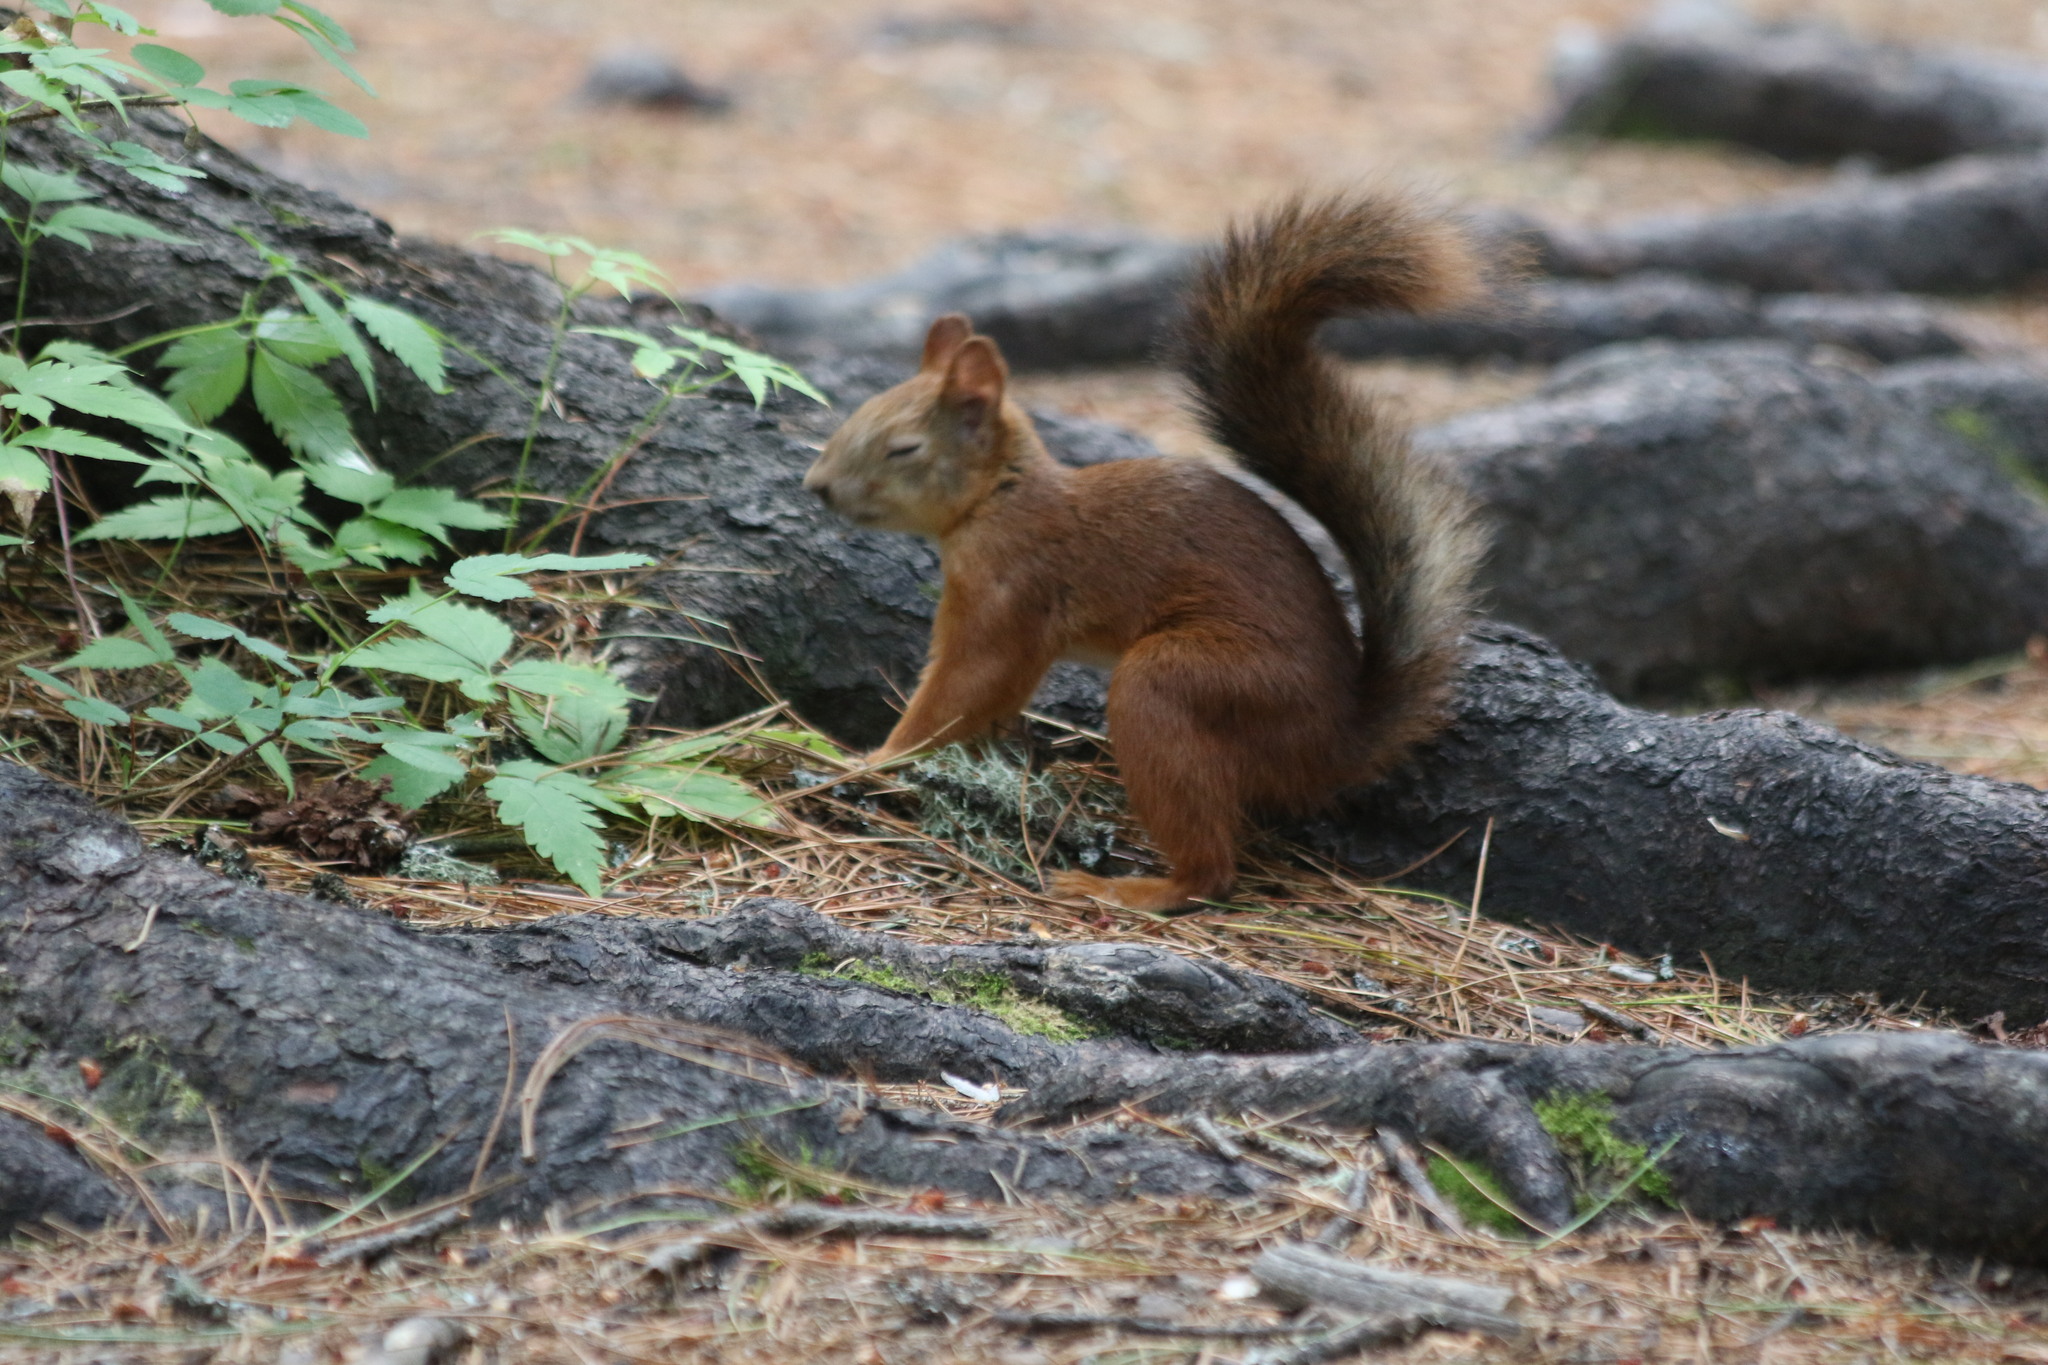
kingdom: Animalia
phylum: Chordata
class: Mammalia
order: Rodentia
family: Sciuridae
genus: Sciurus
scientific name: Sciurus vulgaris
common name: Eurasian red squirrel
